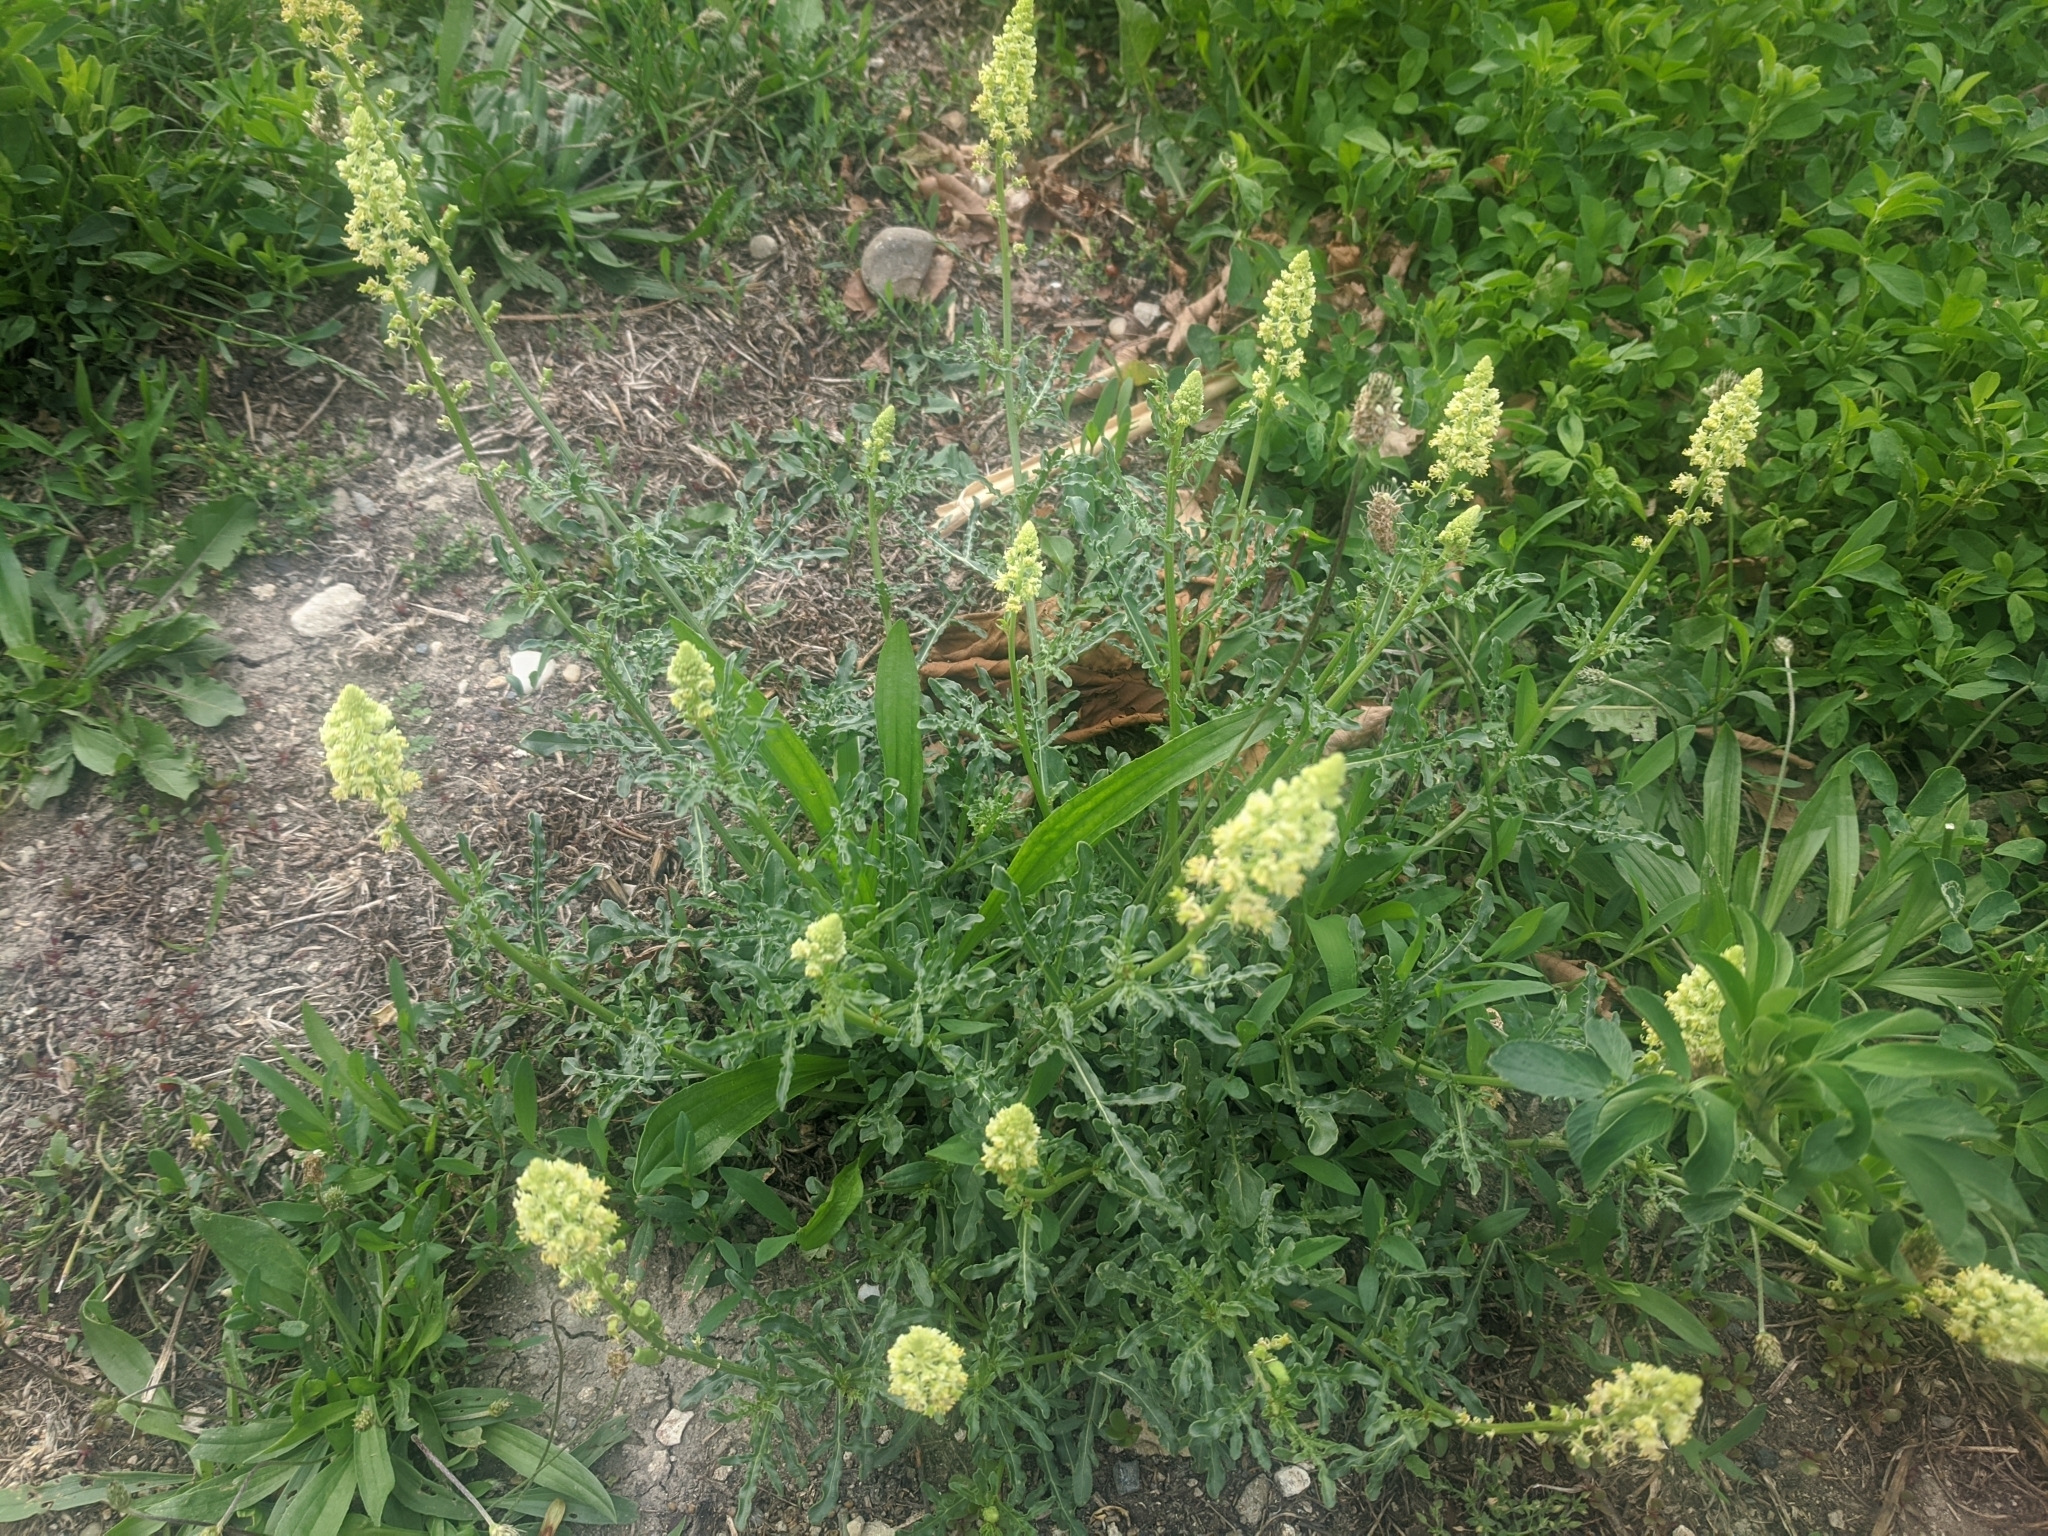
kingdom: Plantae
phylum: Tracheophyta
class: Magnoliopsida
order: Brassicales
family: Resedaceae
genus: Reseda
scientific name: Reseda luteola
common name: Weld
